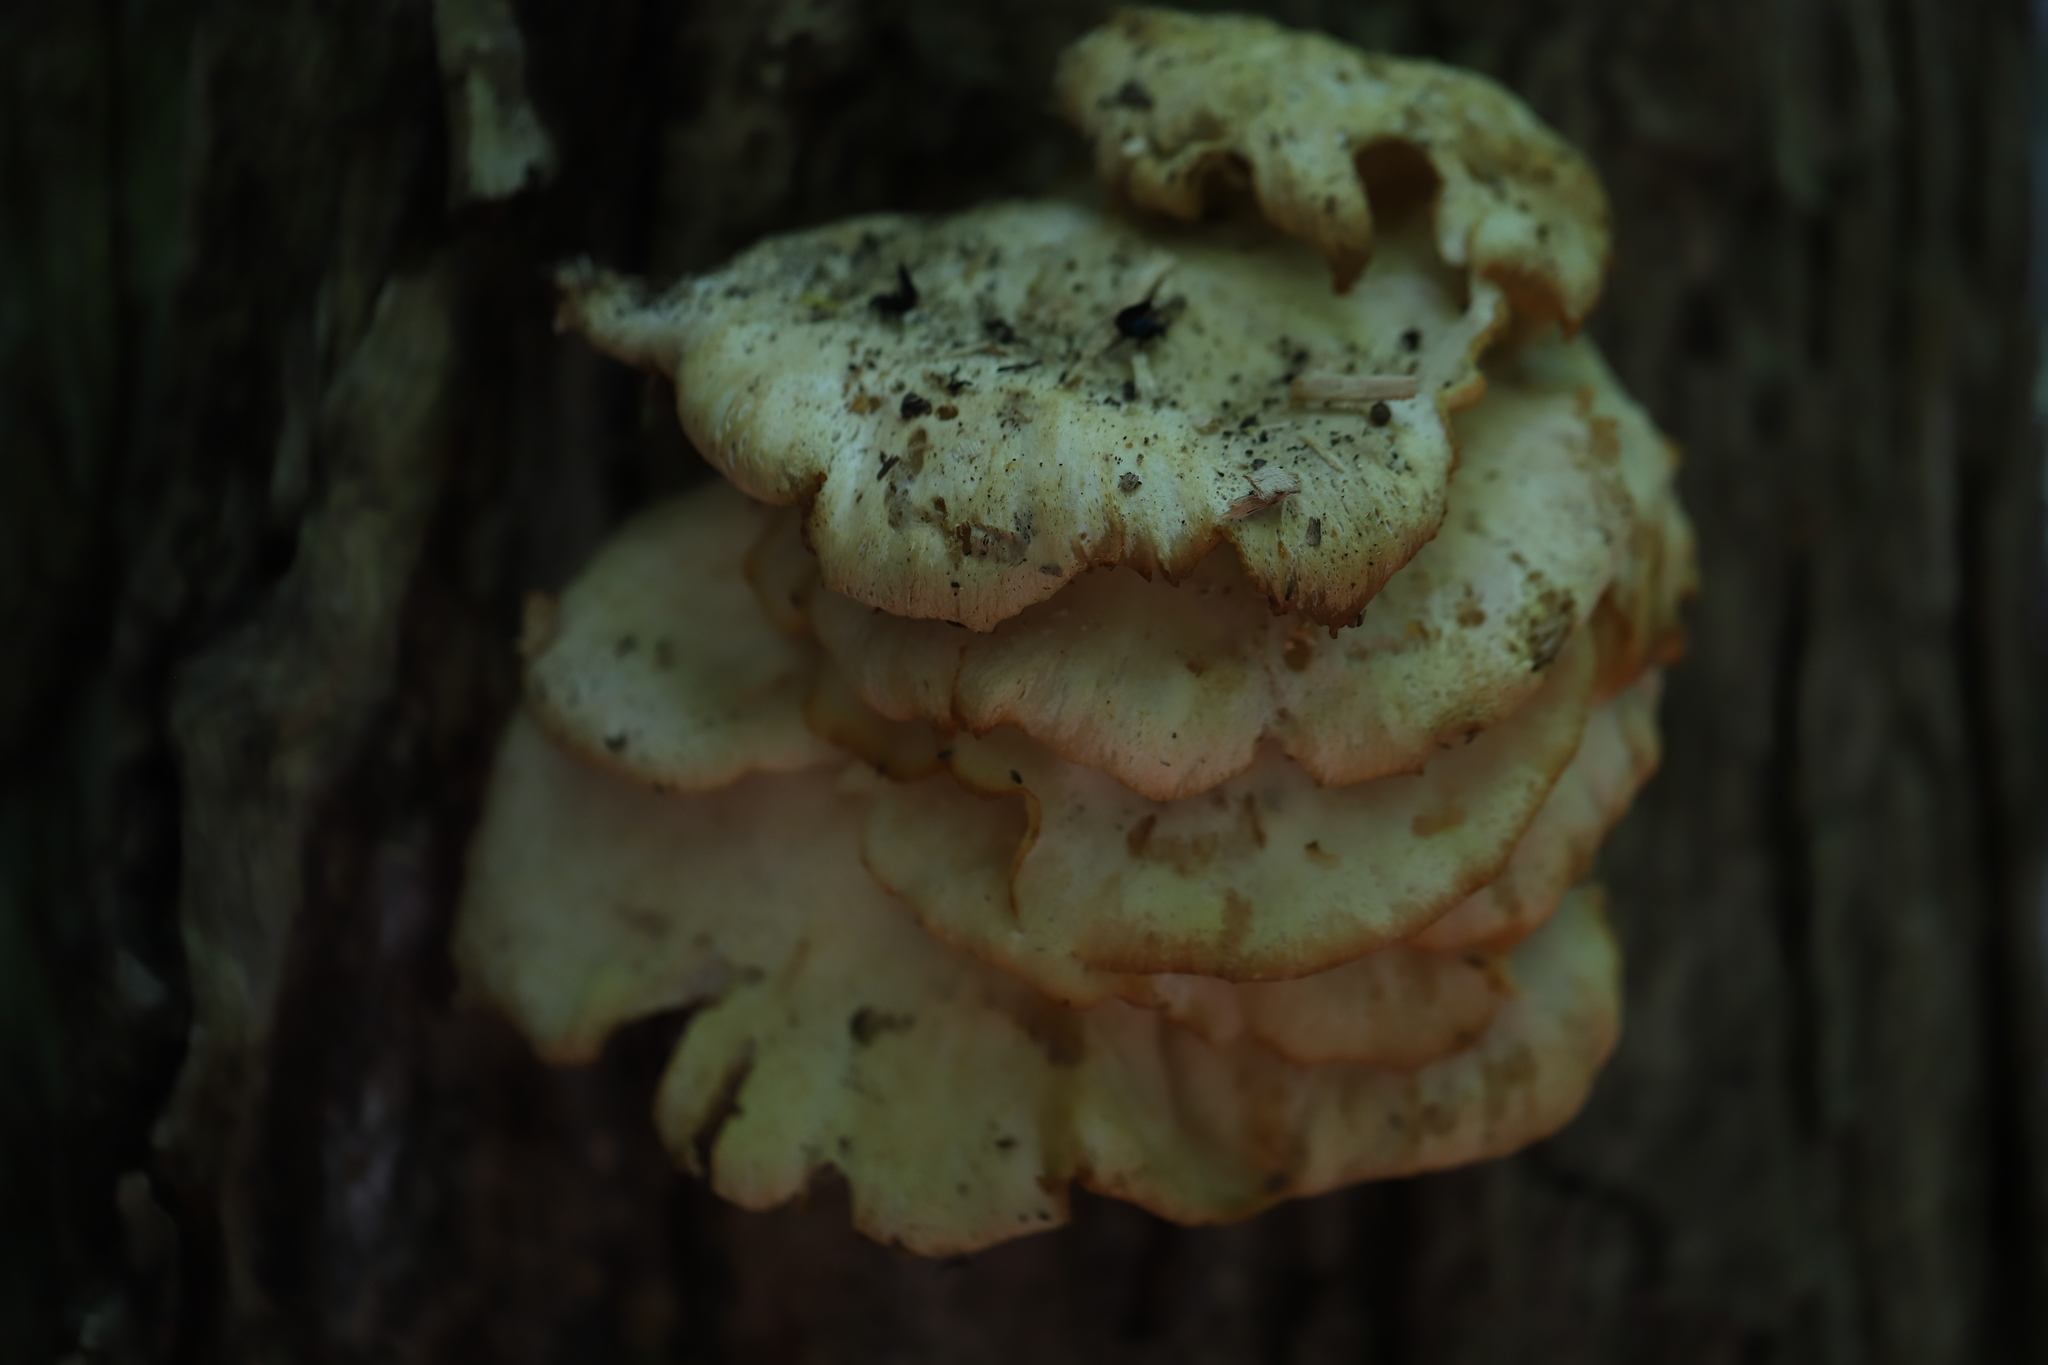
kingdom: Fungi
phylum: Basidiomycota
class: Agaricomycetes
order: Polyporales
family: Polyporaceae
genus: Lenzites
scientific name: Lenzites betulinus
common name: Birch mazegill
